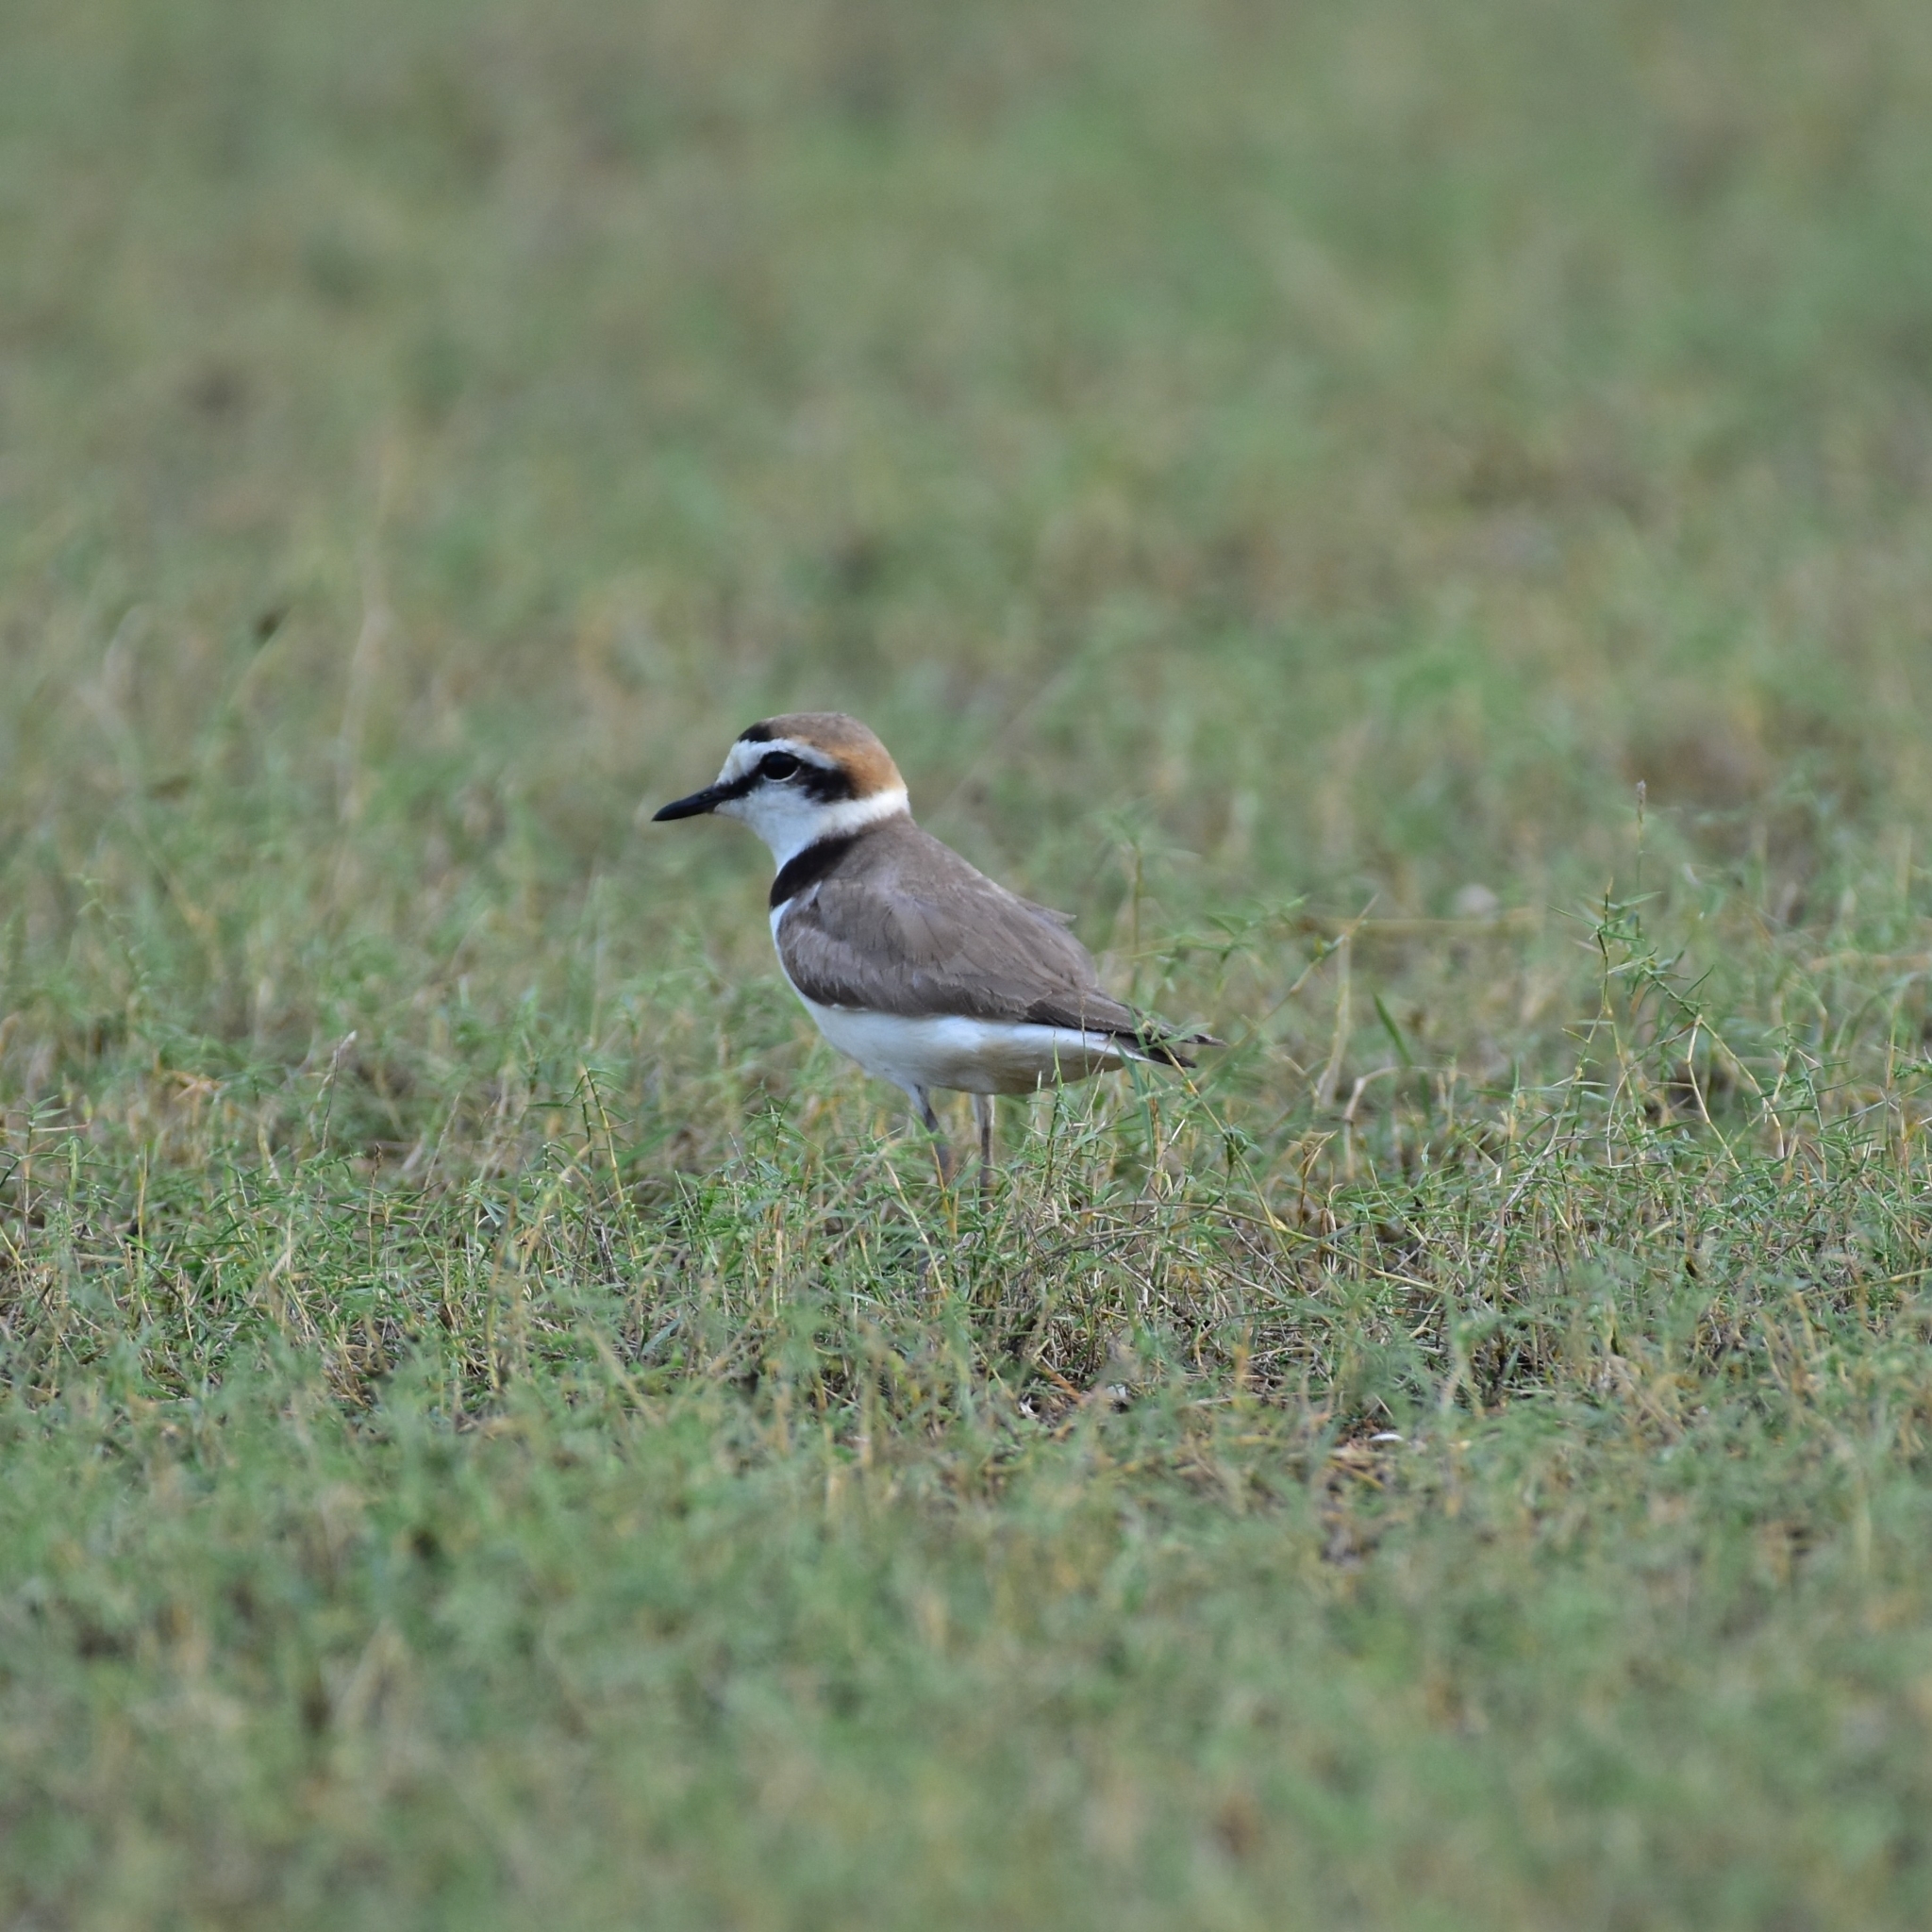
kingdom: Animalia
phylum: Chordata
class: Aves
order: Charadriiformes
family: Charadriidae
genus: Charadrius
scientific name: Charadrius alexandrinus
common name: Kentish plover
